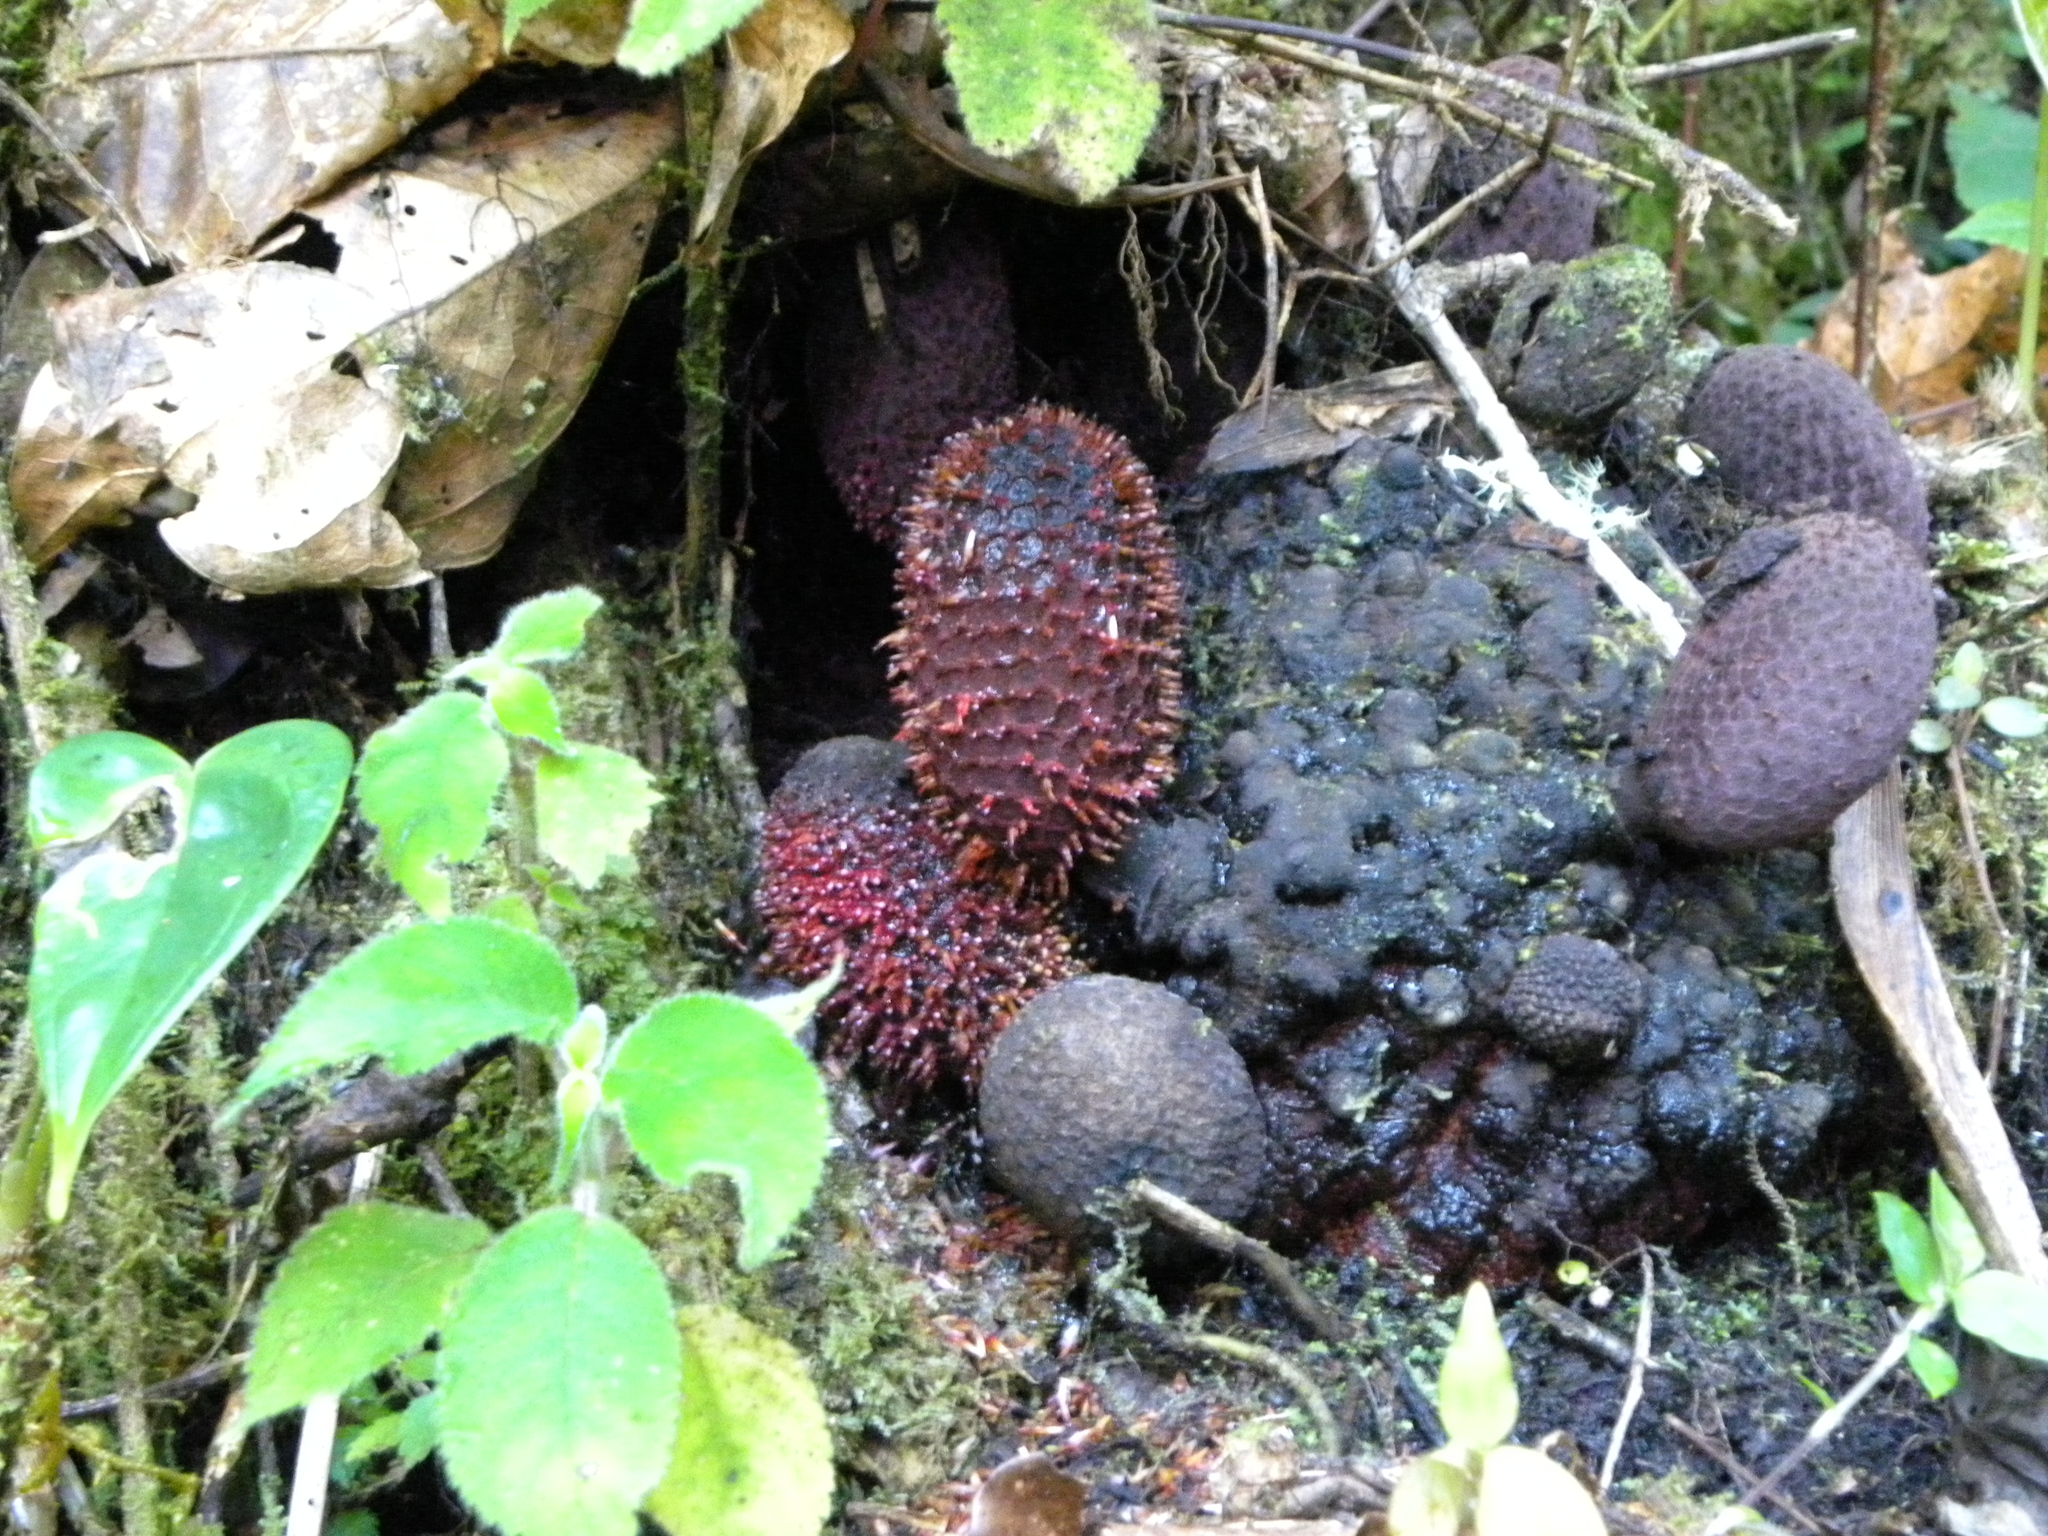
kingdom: Plantae
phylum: Tracheophyta
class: Magnoliopsida
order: Santalales
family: Balanophoraceae
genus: Helosis
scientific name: Helosis cayennensis
